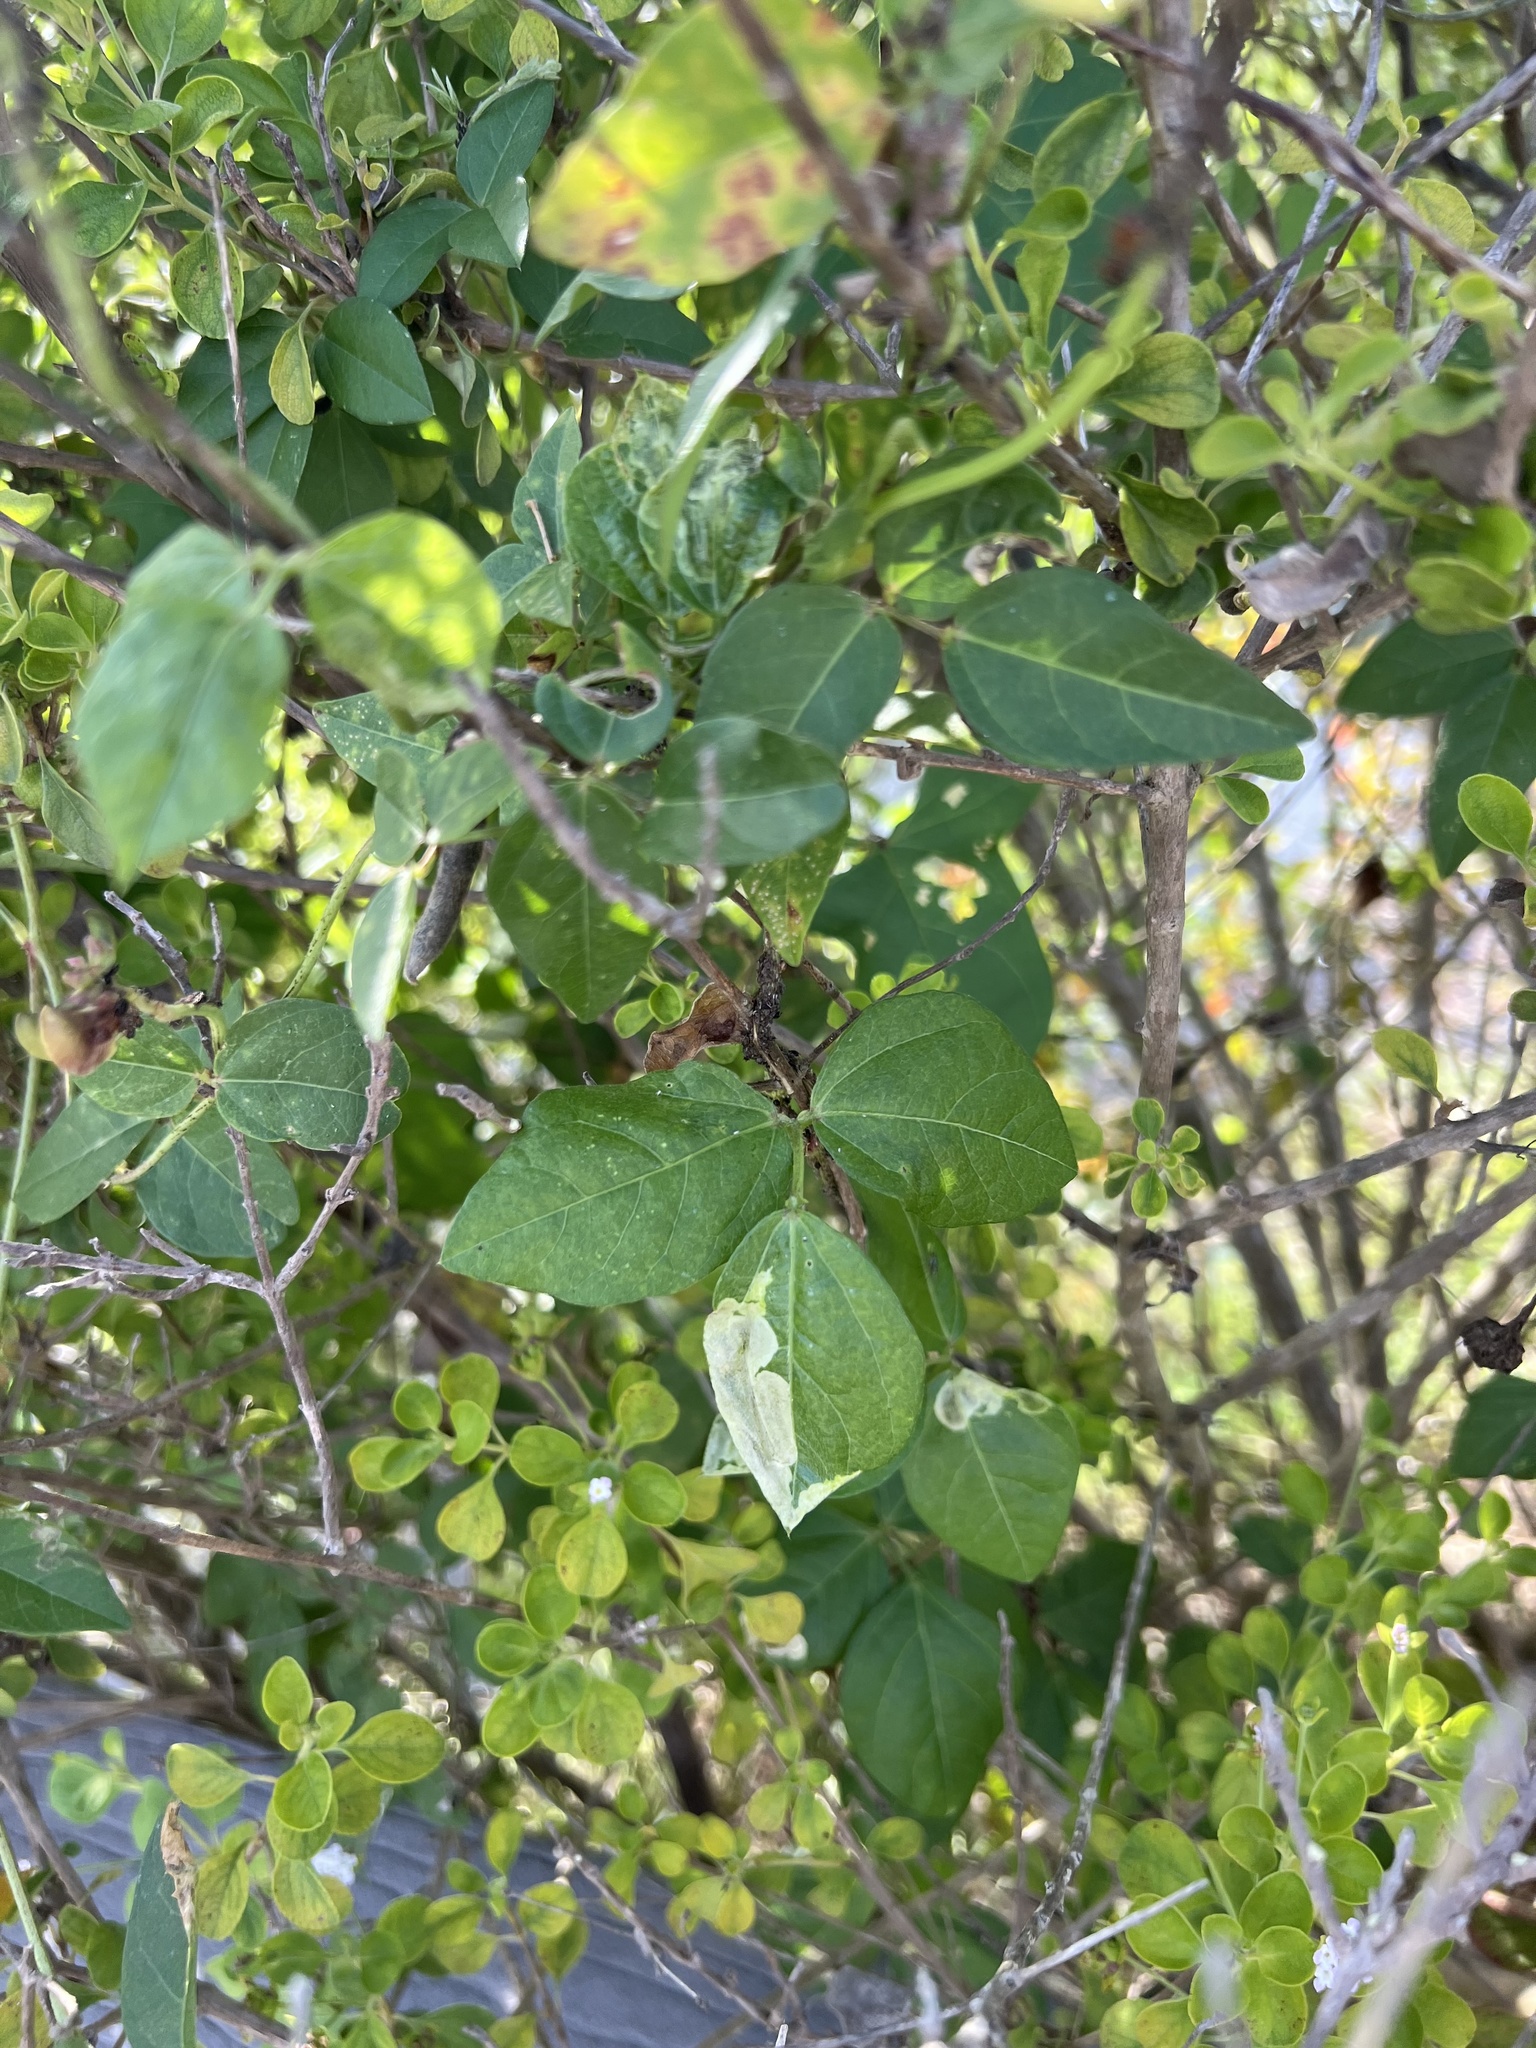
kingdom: Plantae
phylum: Tracheophyta
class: Magnoliopsida
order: Fabales
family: Fabaceae
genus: Vigna
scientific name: Vigna luteola
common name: Hairypod cowpea
